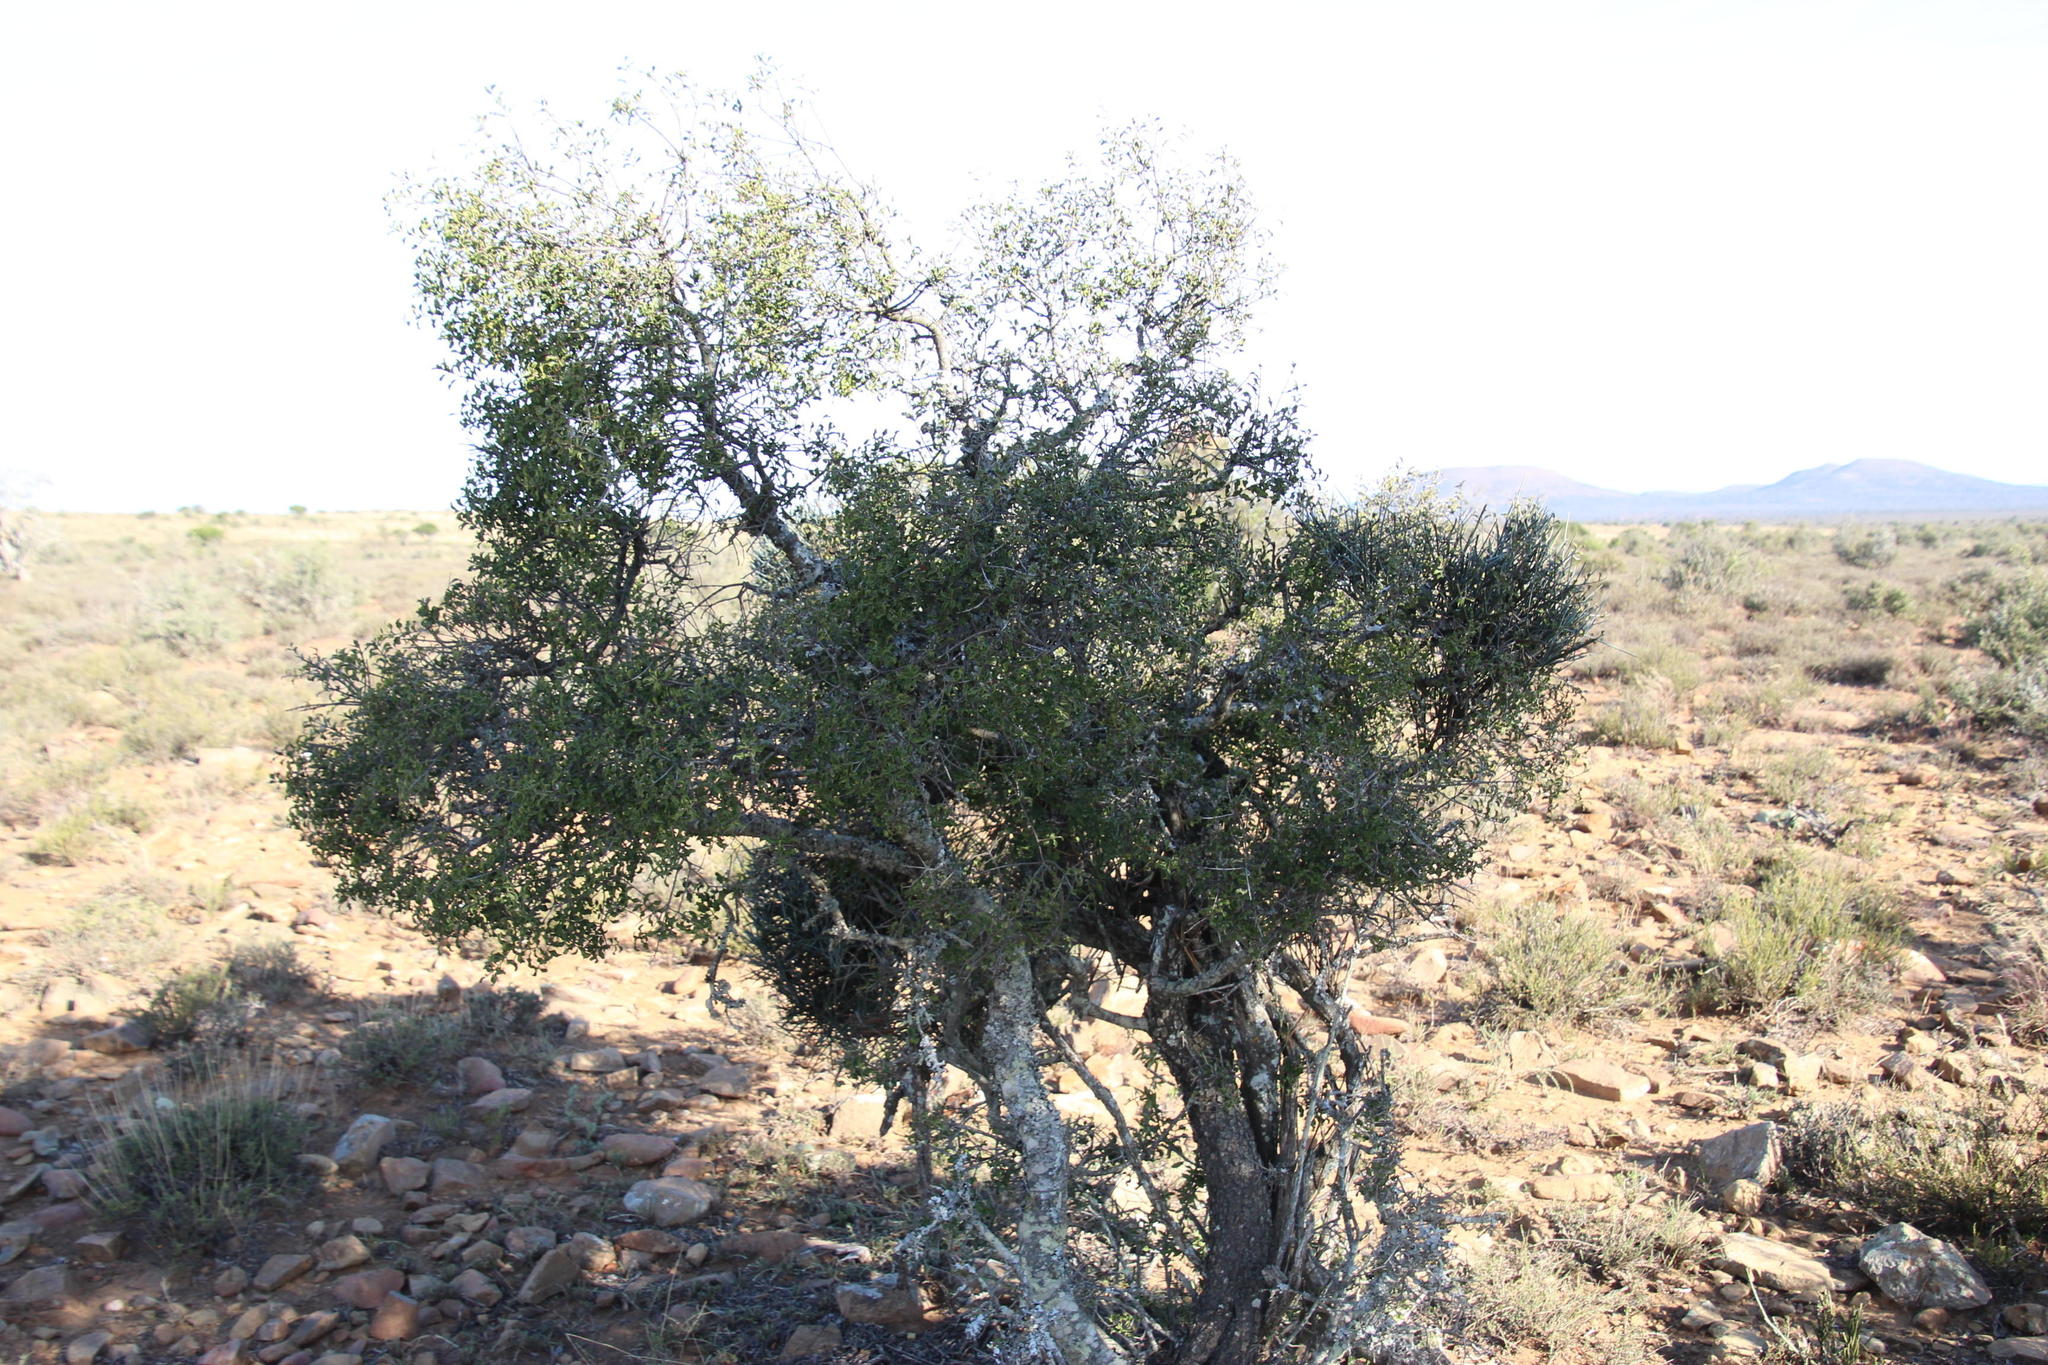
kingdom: Plantae
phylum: Tracheophyta
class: Magnoliopsida
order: Ericales
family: Ebenaceae
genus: Euclea
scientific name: Euclea undulata
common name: Small-leaved guarri
